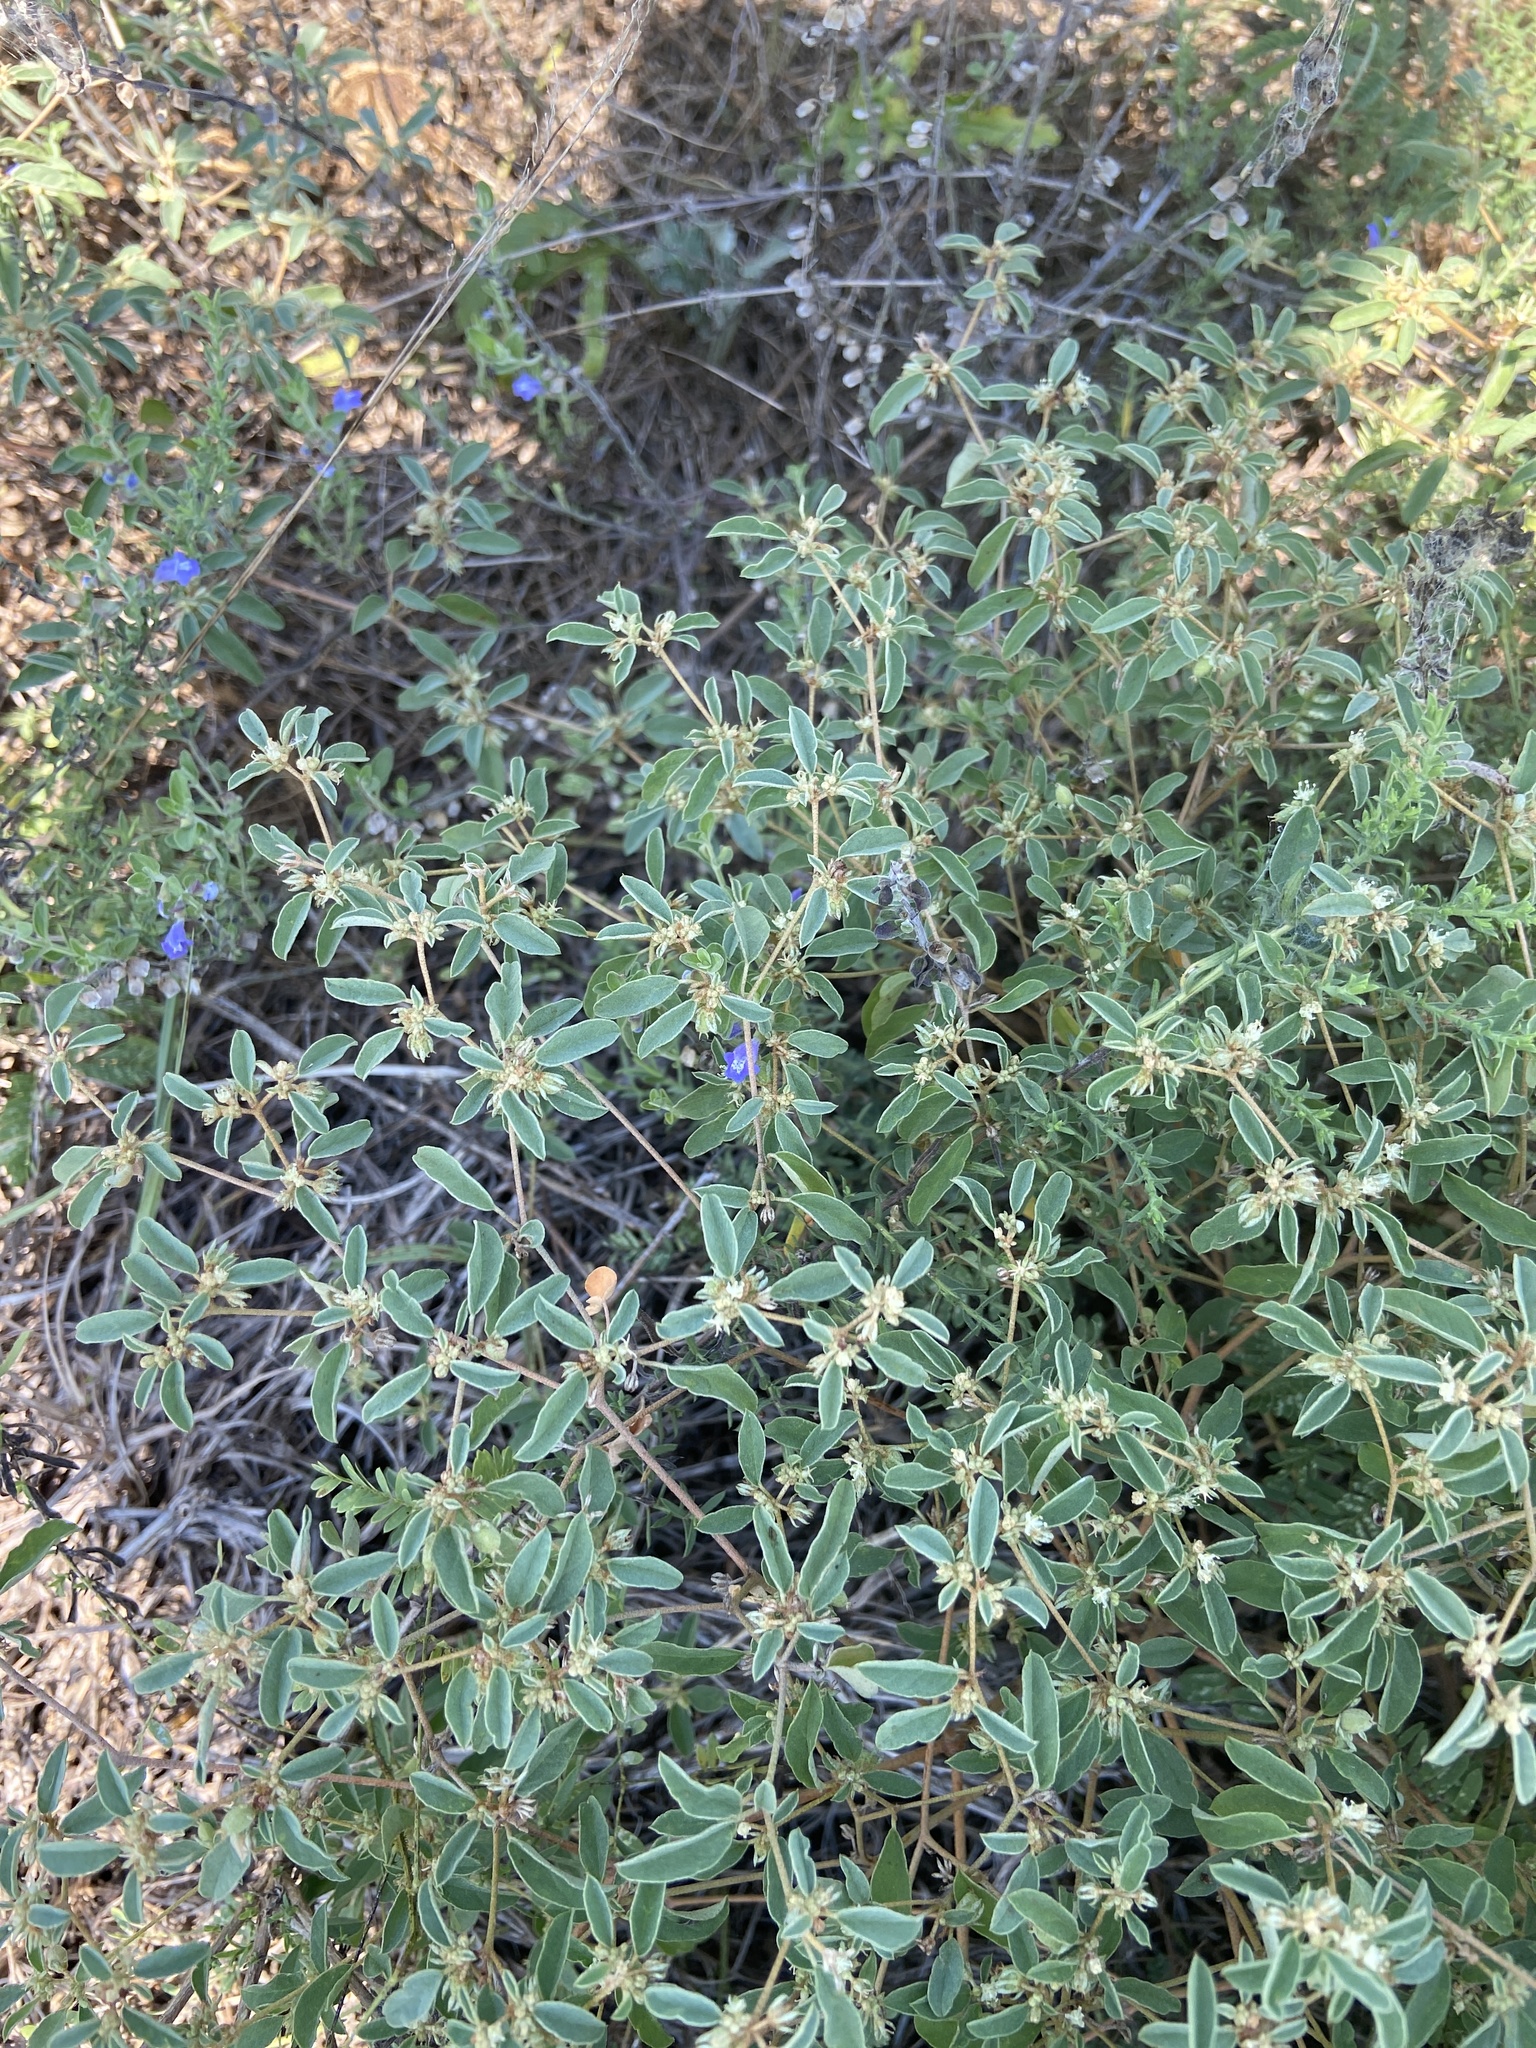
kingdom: Plantae
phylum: Tracheophyta
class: Magnoliopsida
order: Malpighiales
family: Euphorbiaceae
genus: Croton
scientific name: Croton monanthogynus
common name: One-seed croton
